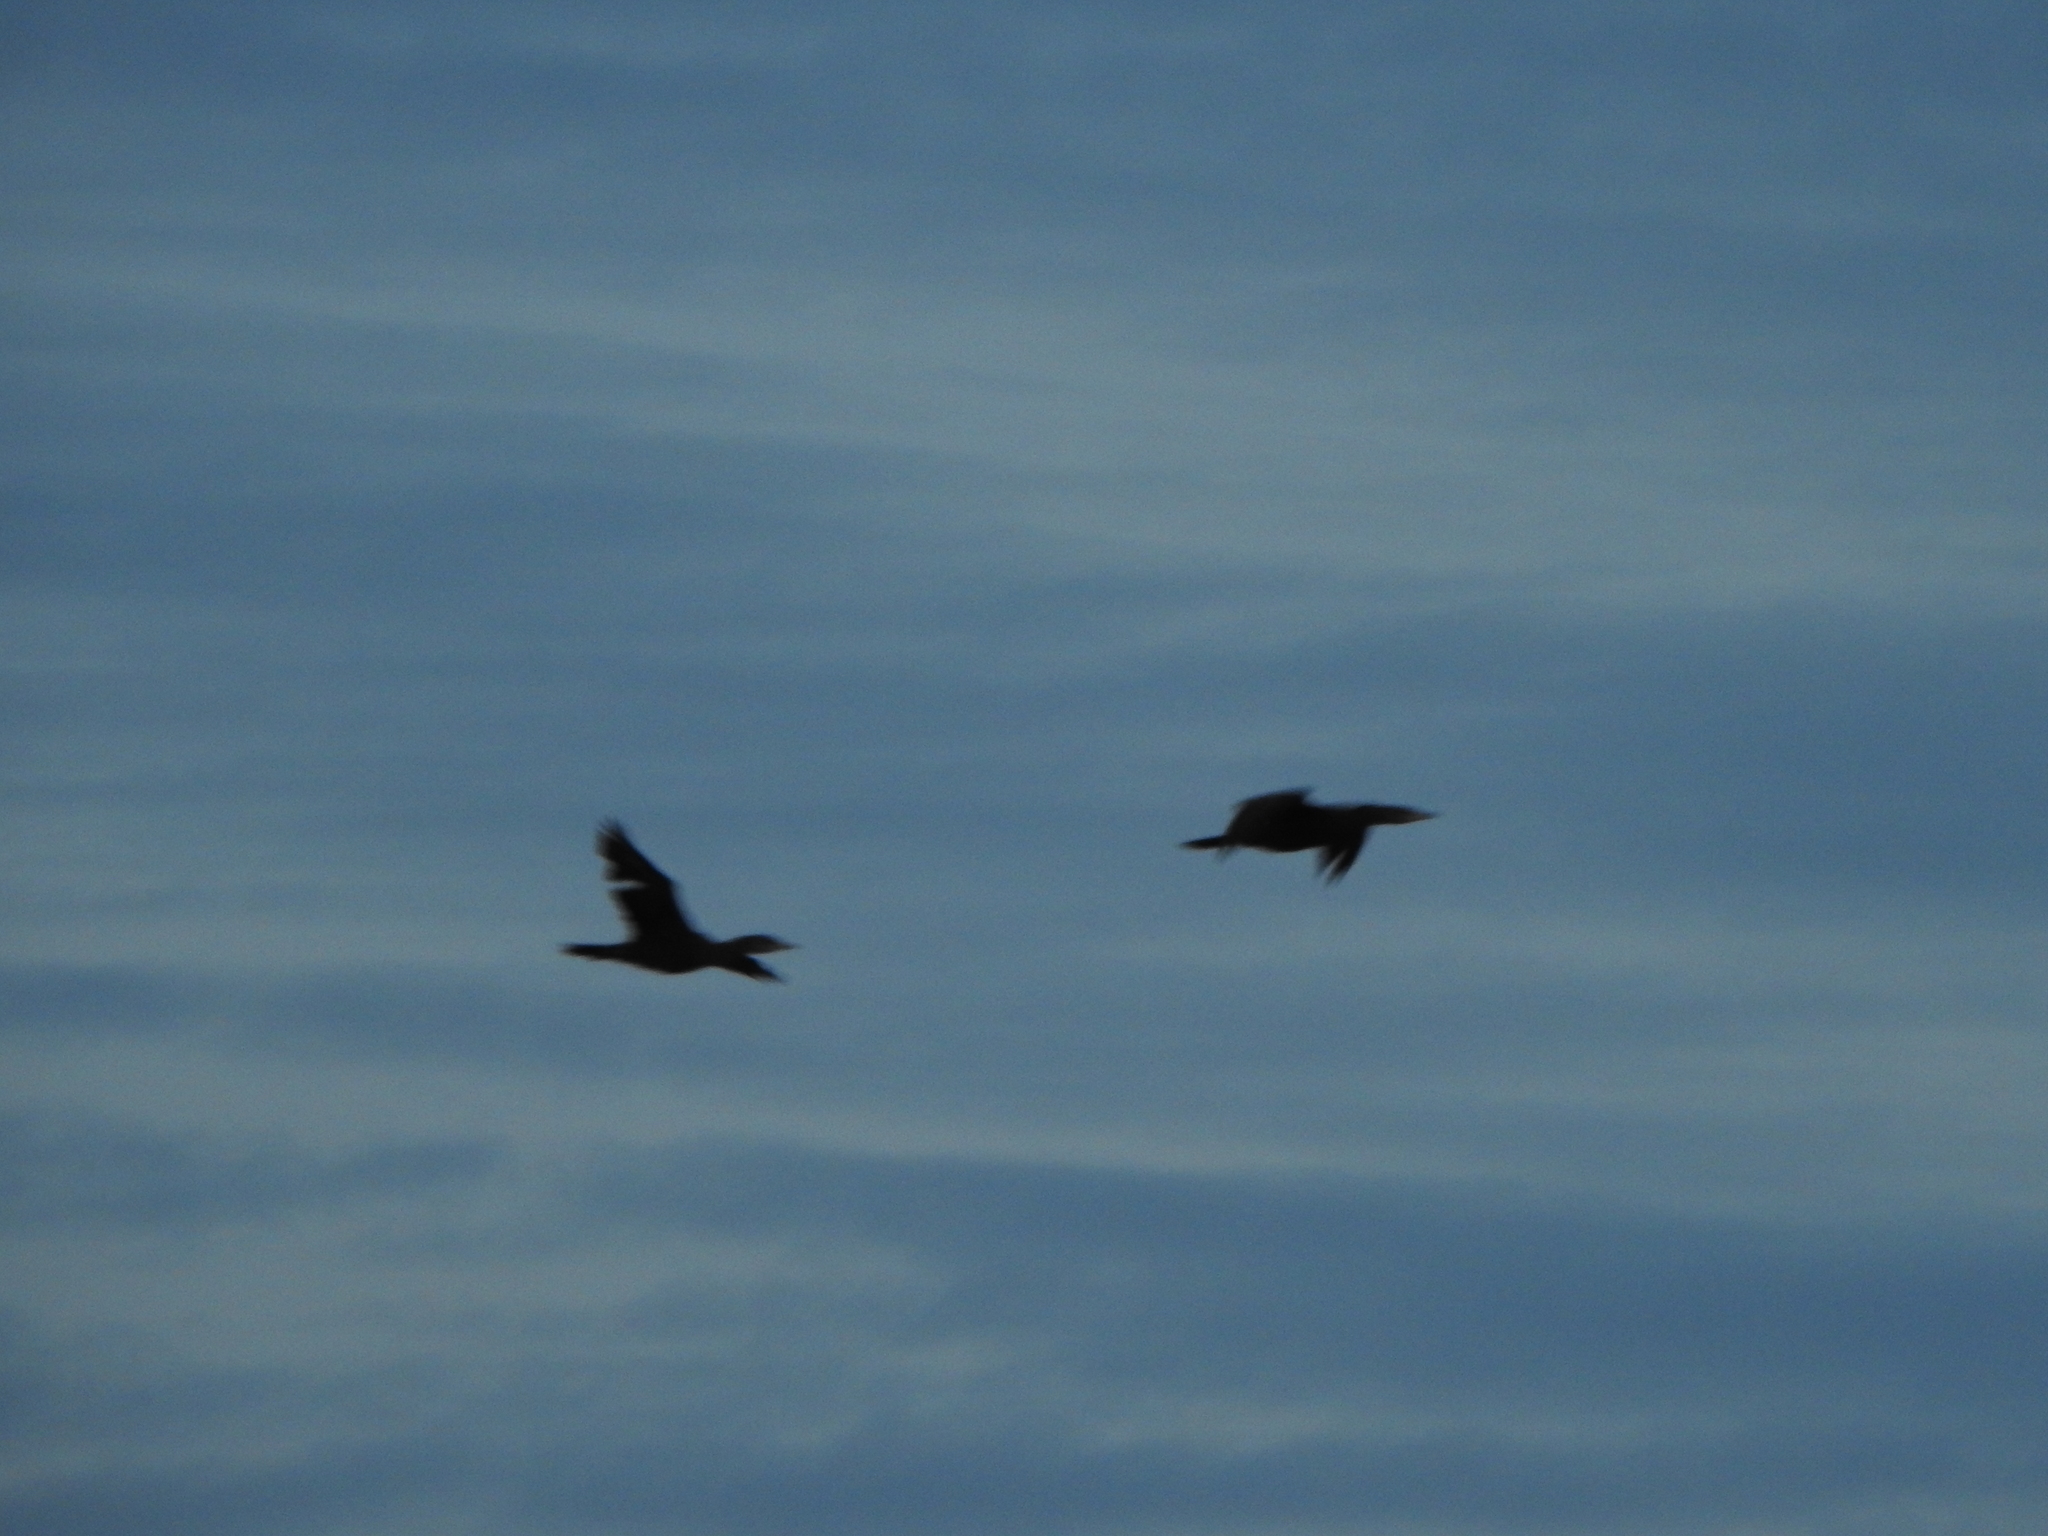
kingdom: Animalia
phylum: Chordata
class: Aves
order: Suliformes
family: Phalacrocoracidae
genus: Phalacrocorax
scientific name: Phalacrocorax brasilianus
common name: Neotropic cormorant
